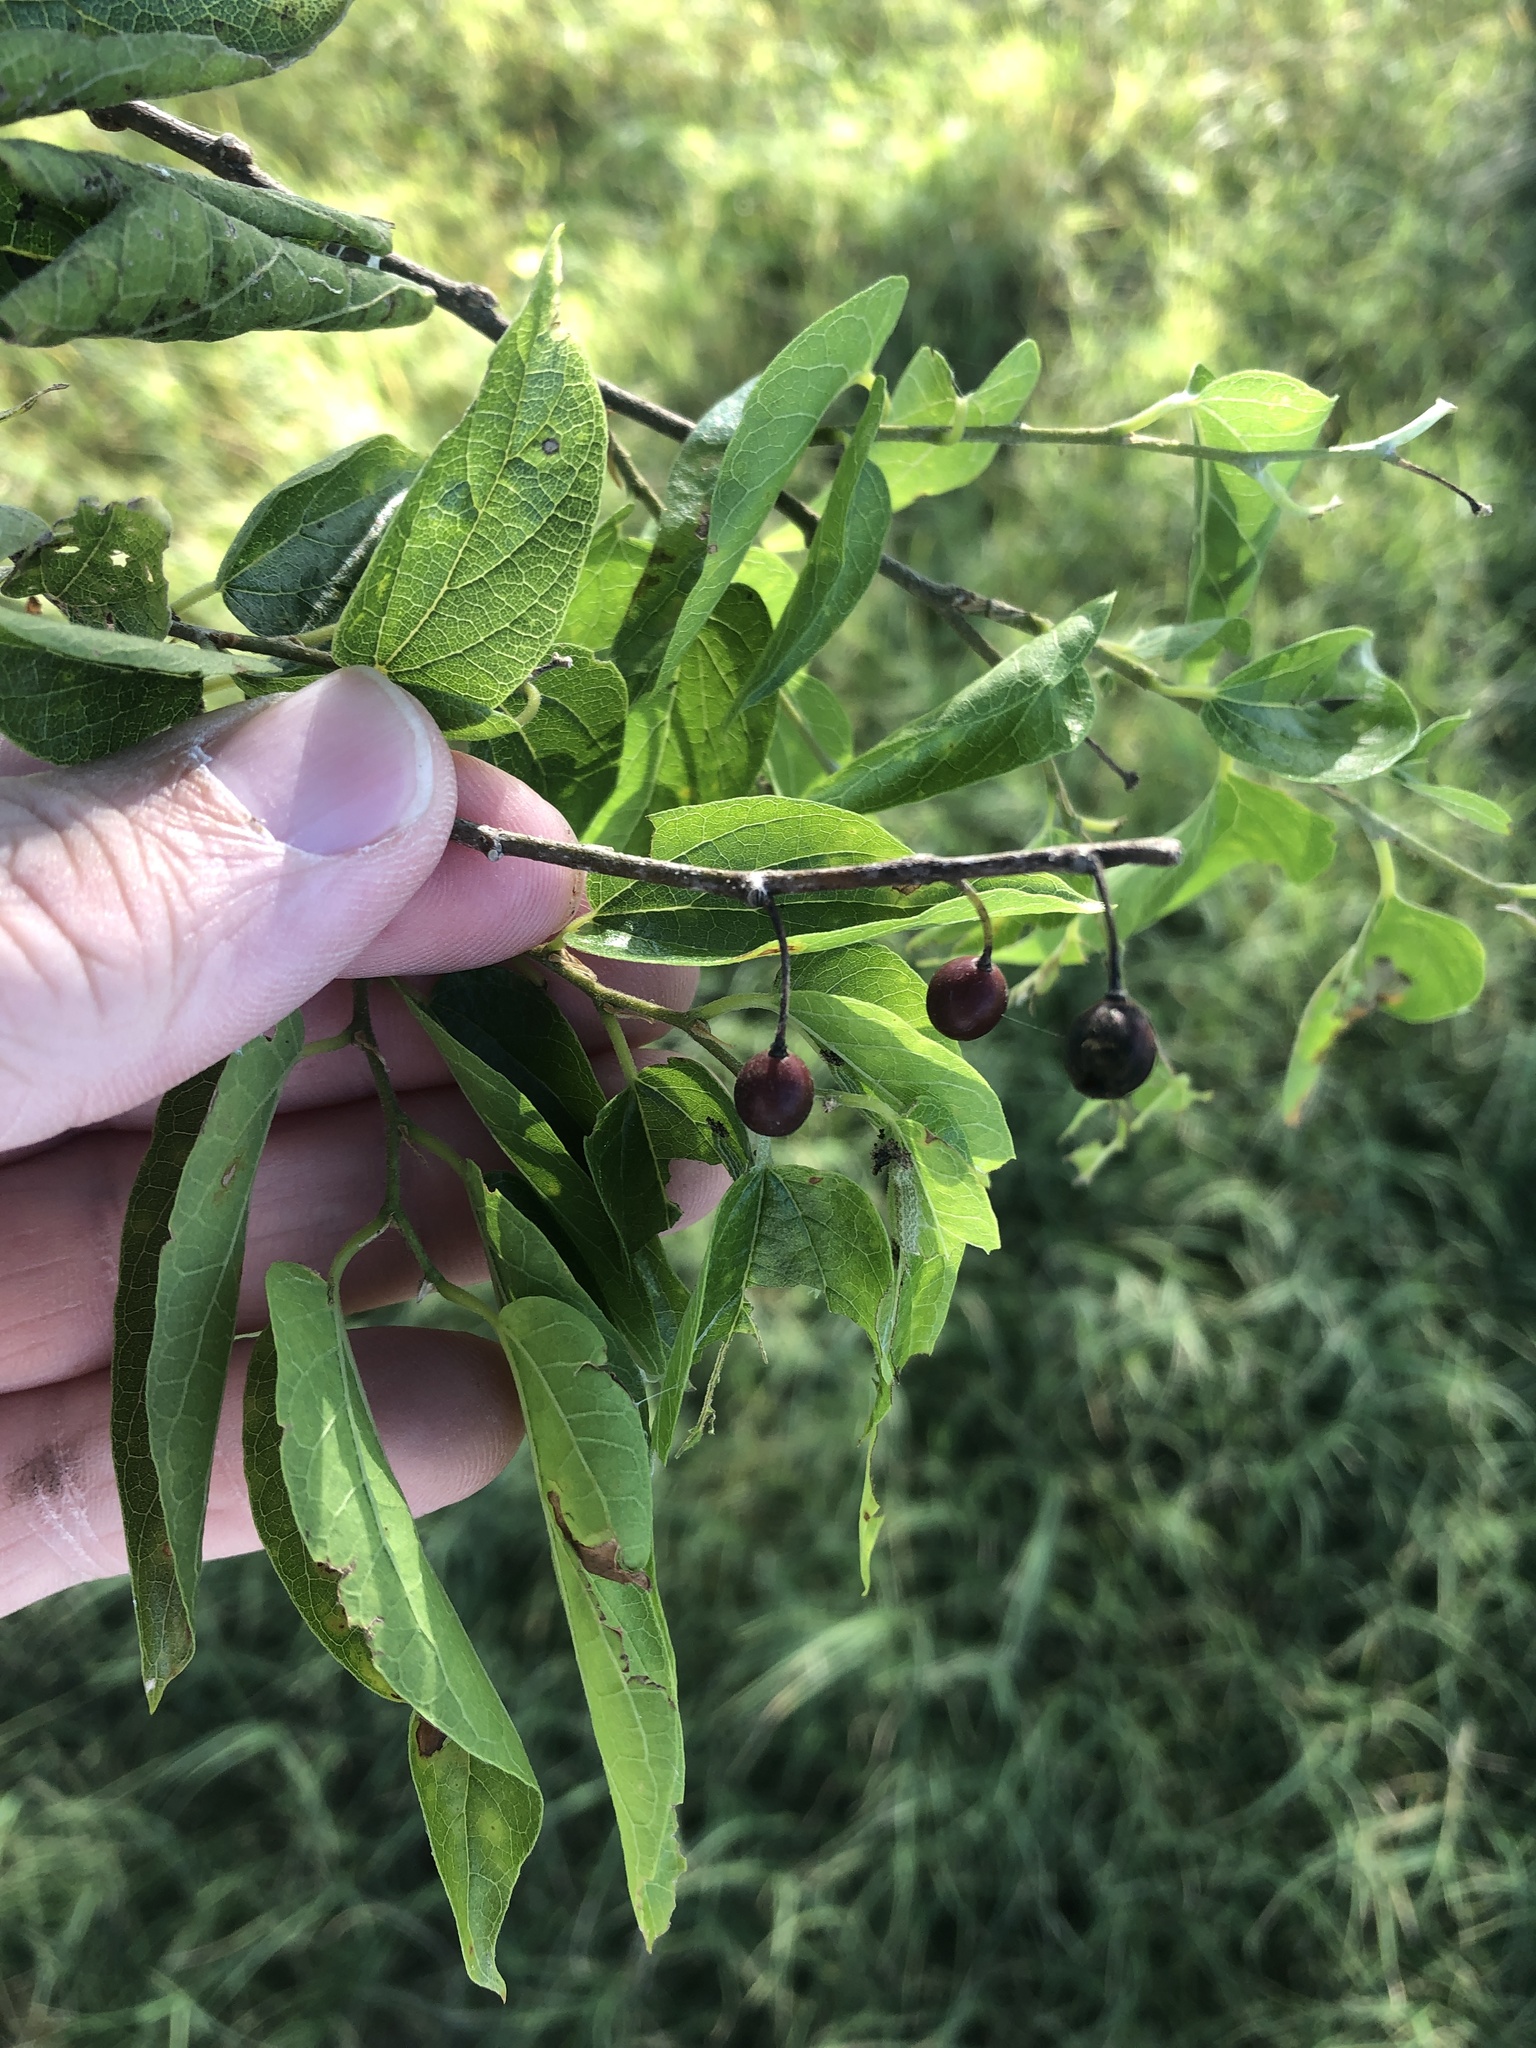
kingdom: Plantae
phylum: Tracheophyta
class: Magnoliopsida
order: Rosales
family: Cannabaceae
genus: Celtis
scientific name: Celtis laevigata
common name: Sugarberry
